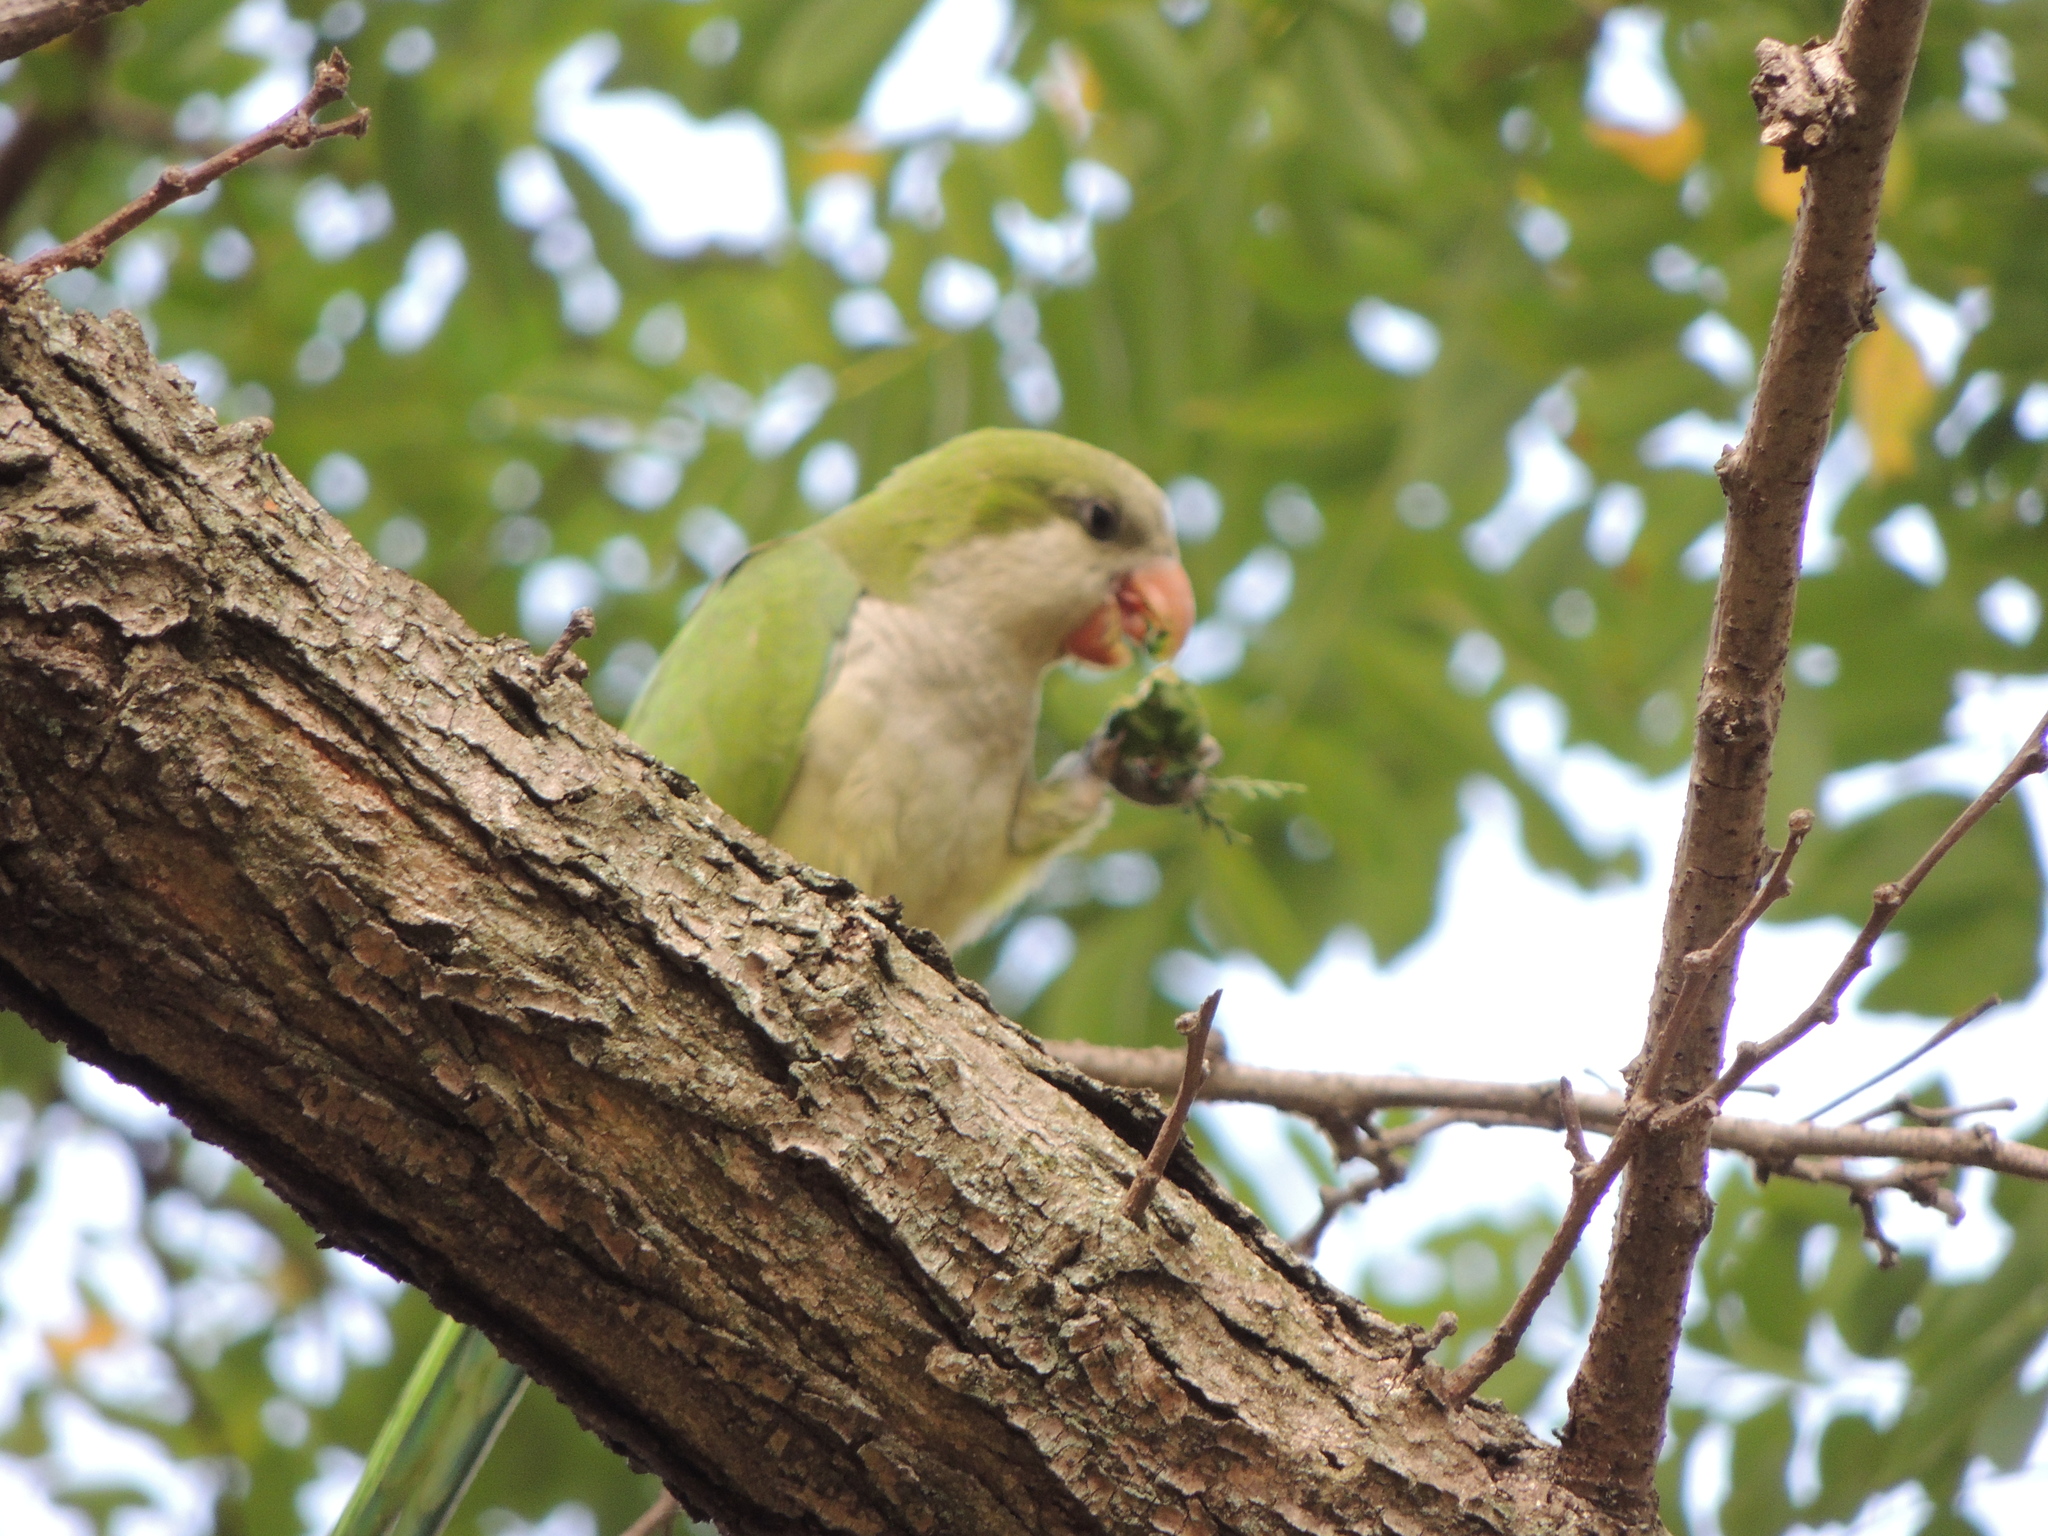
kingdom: Animalia
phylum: Chordata
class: Aves
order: Psittaciformes
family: Psittacidae
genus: Myiopsitta
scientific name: Myiopsitta monachus
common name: Monk parakeet
